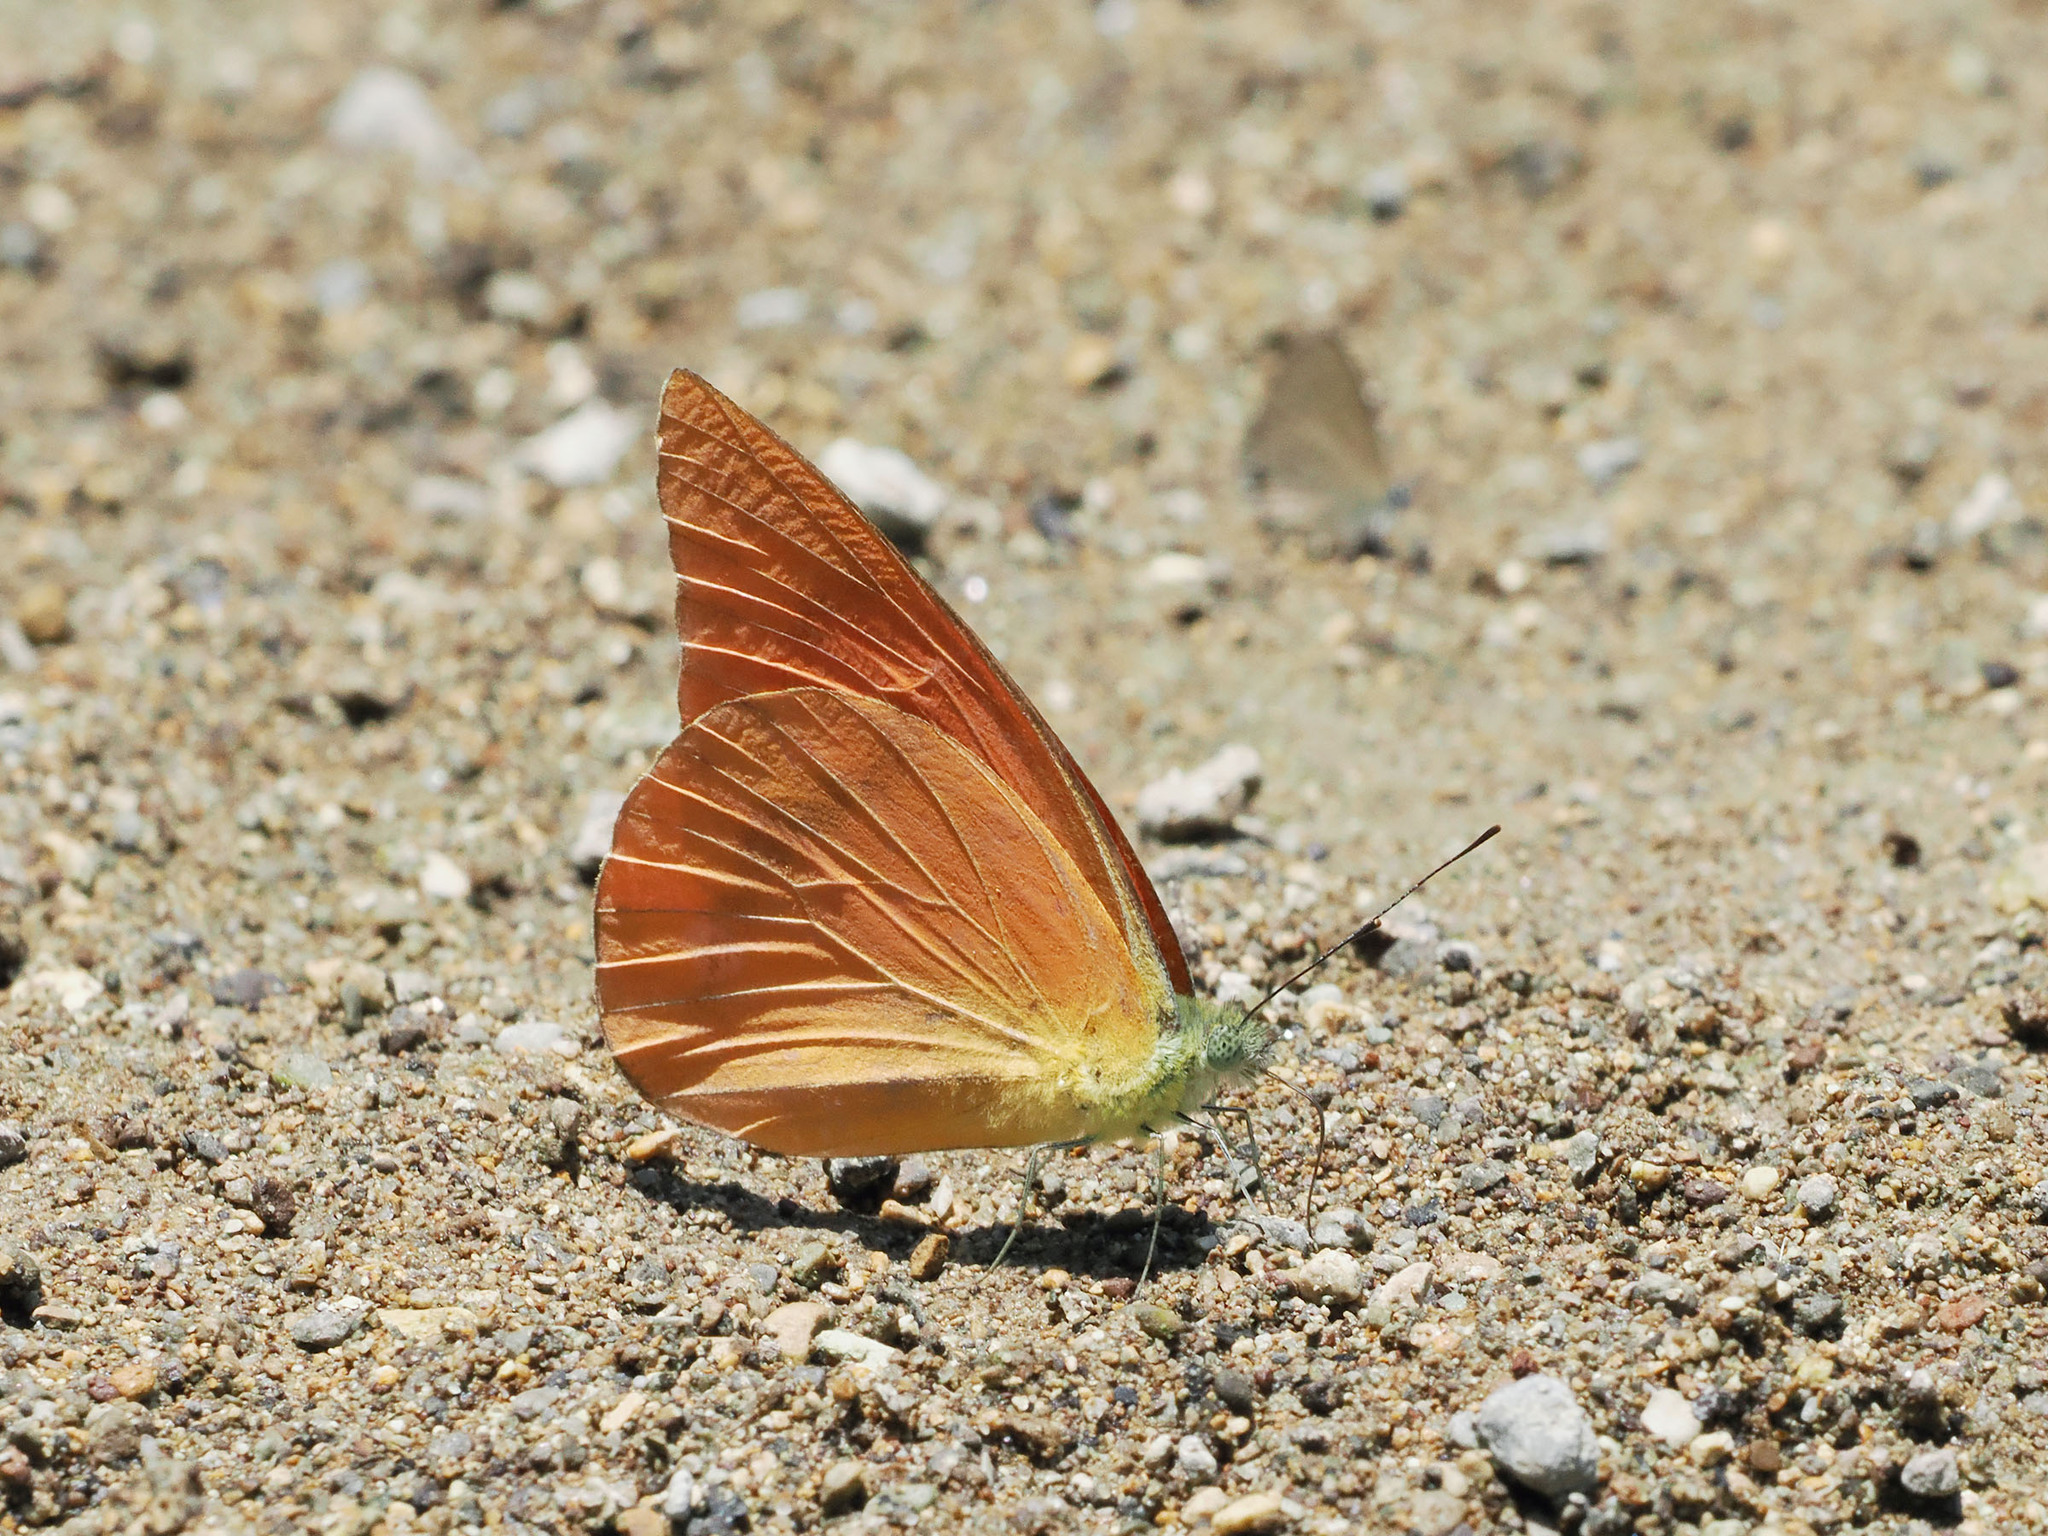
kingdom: Animalia
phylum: Arthropoda
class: Insecta
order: Lepidoptera
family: Pieridae
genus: Appias
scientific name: Appias zarinda
